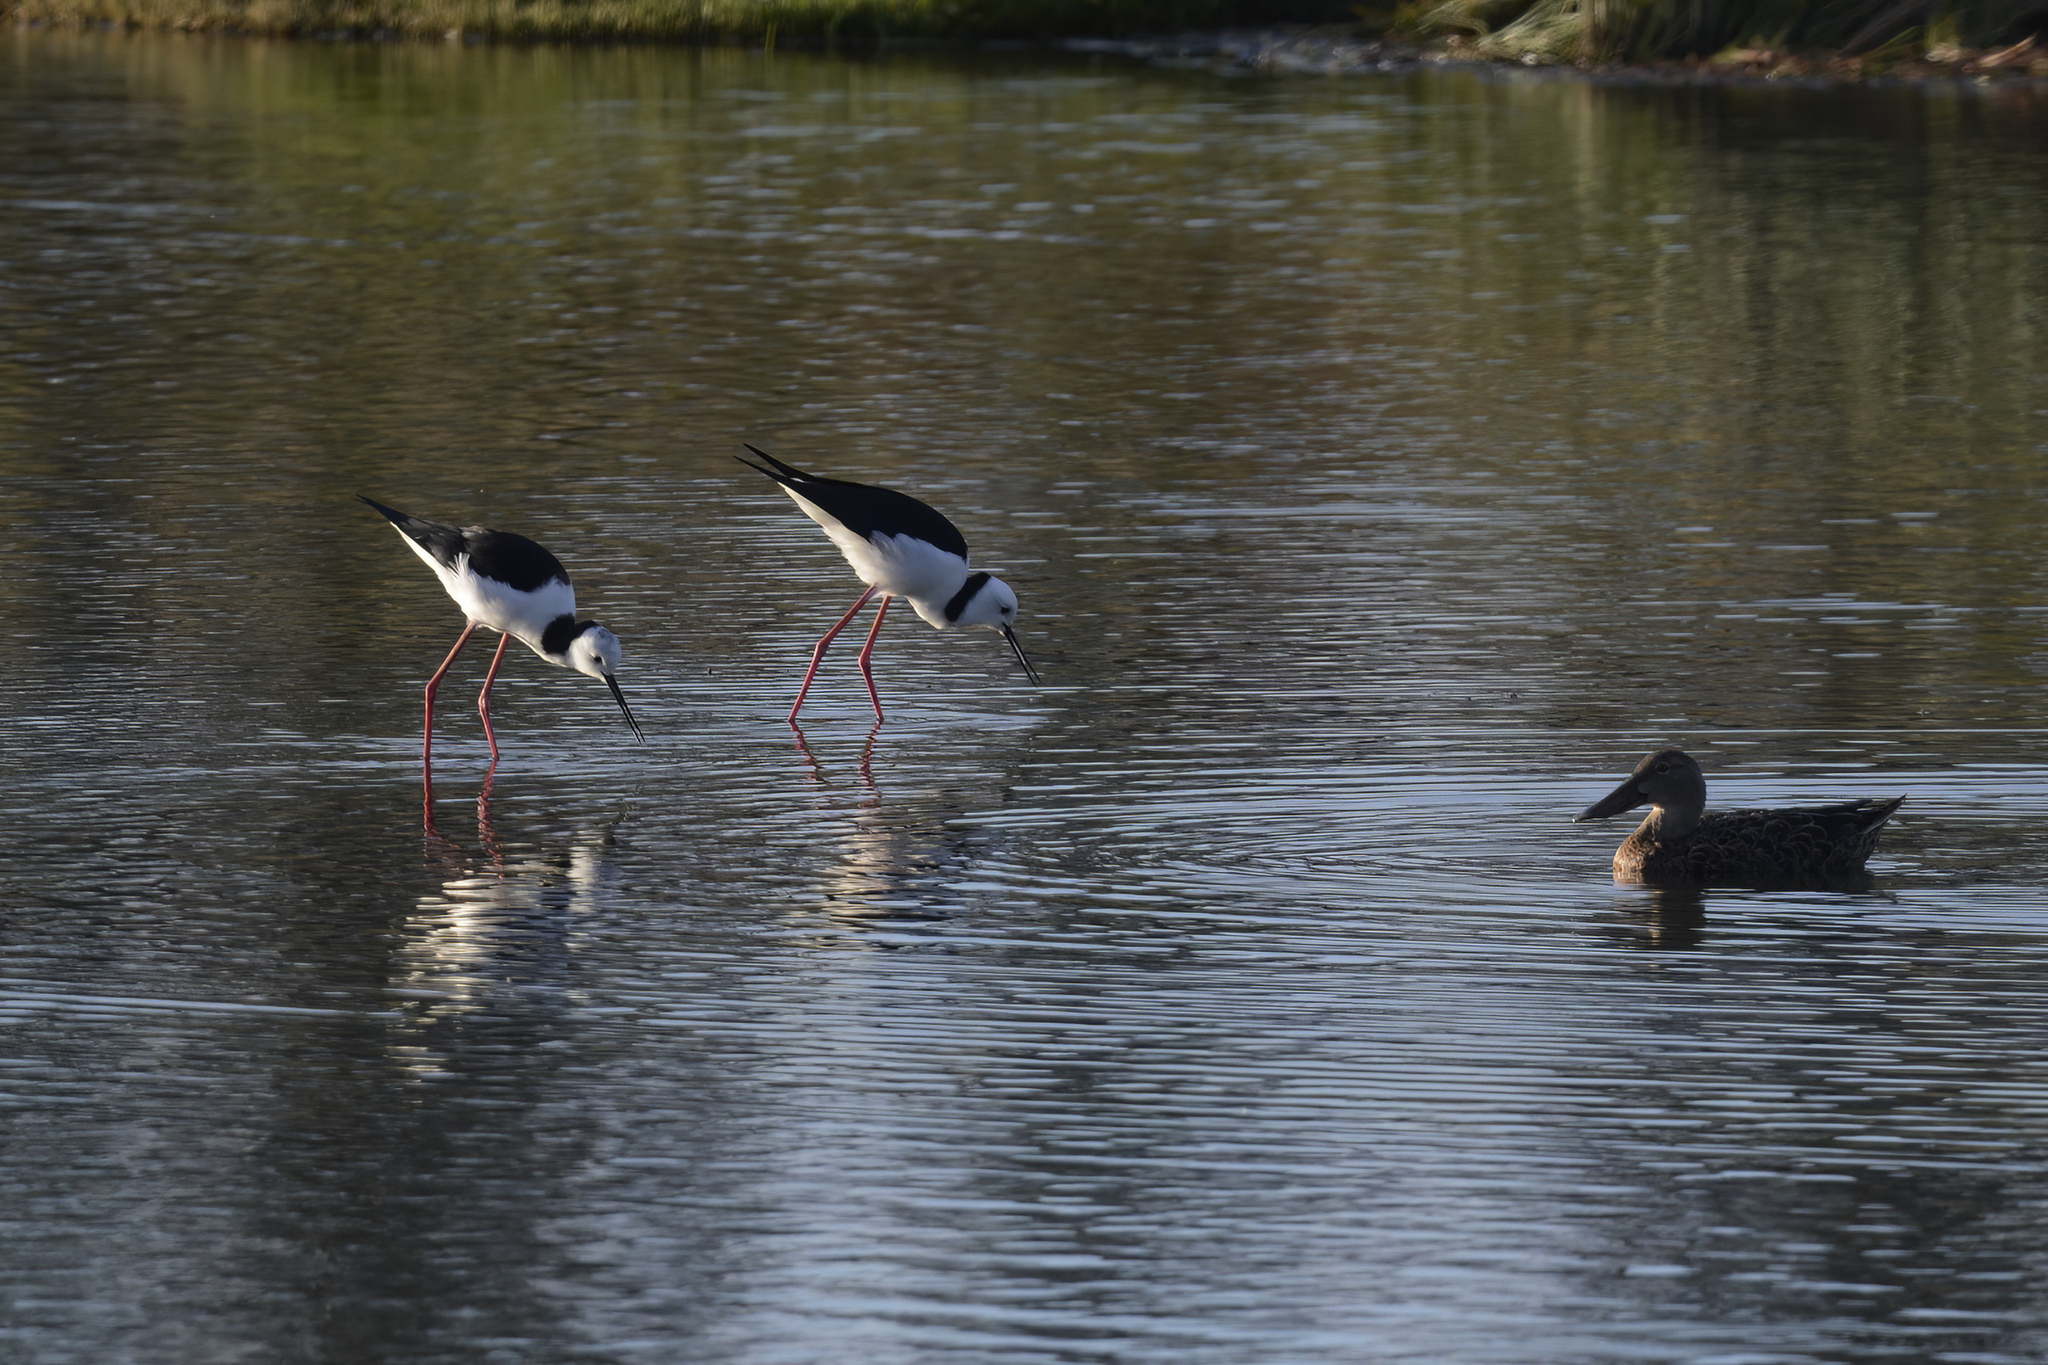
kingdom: Animalia
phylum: Chordata
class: Aves
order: Charadriiformes
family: Recurvirostridae
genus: Himantopus
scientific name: Himantopus leucocephalus
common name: White-headed stilt
